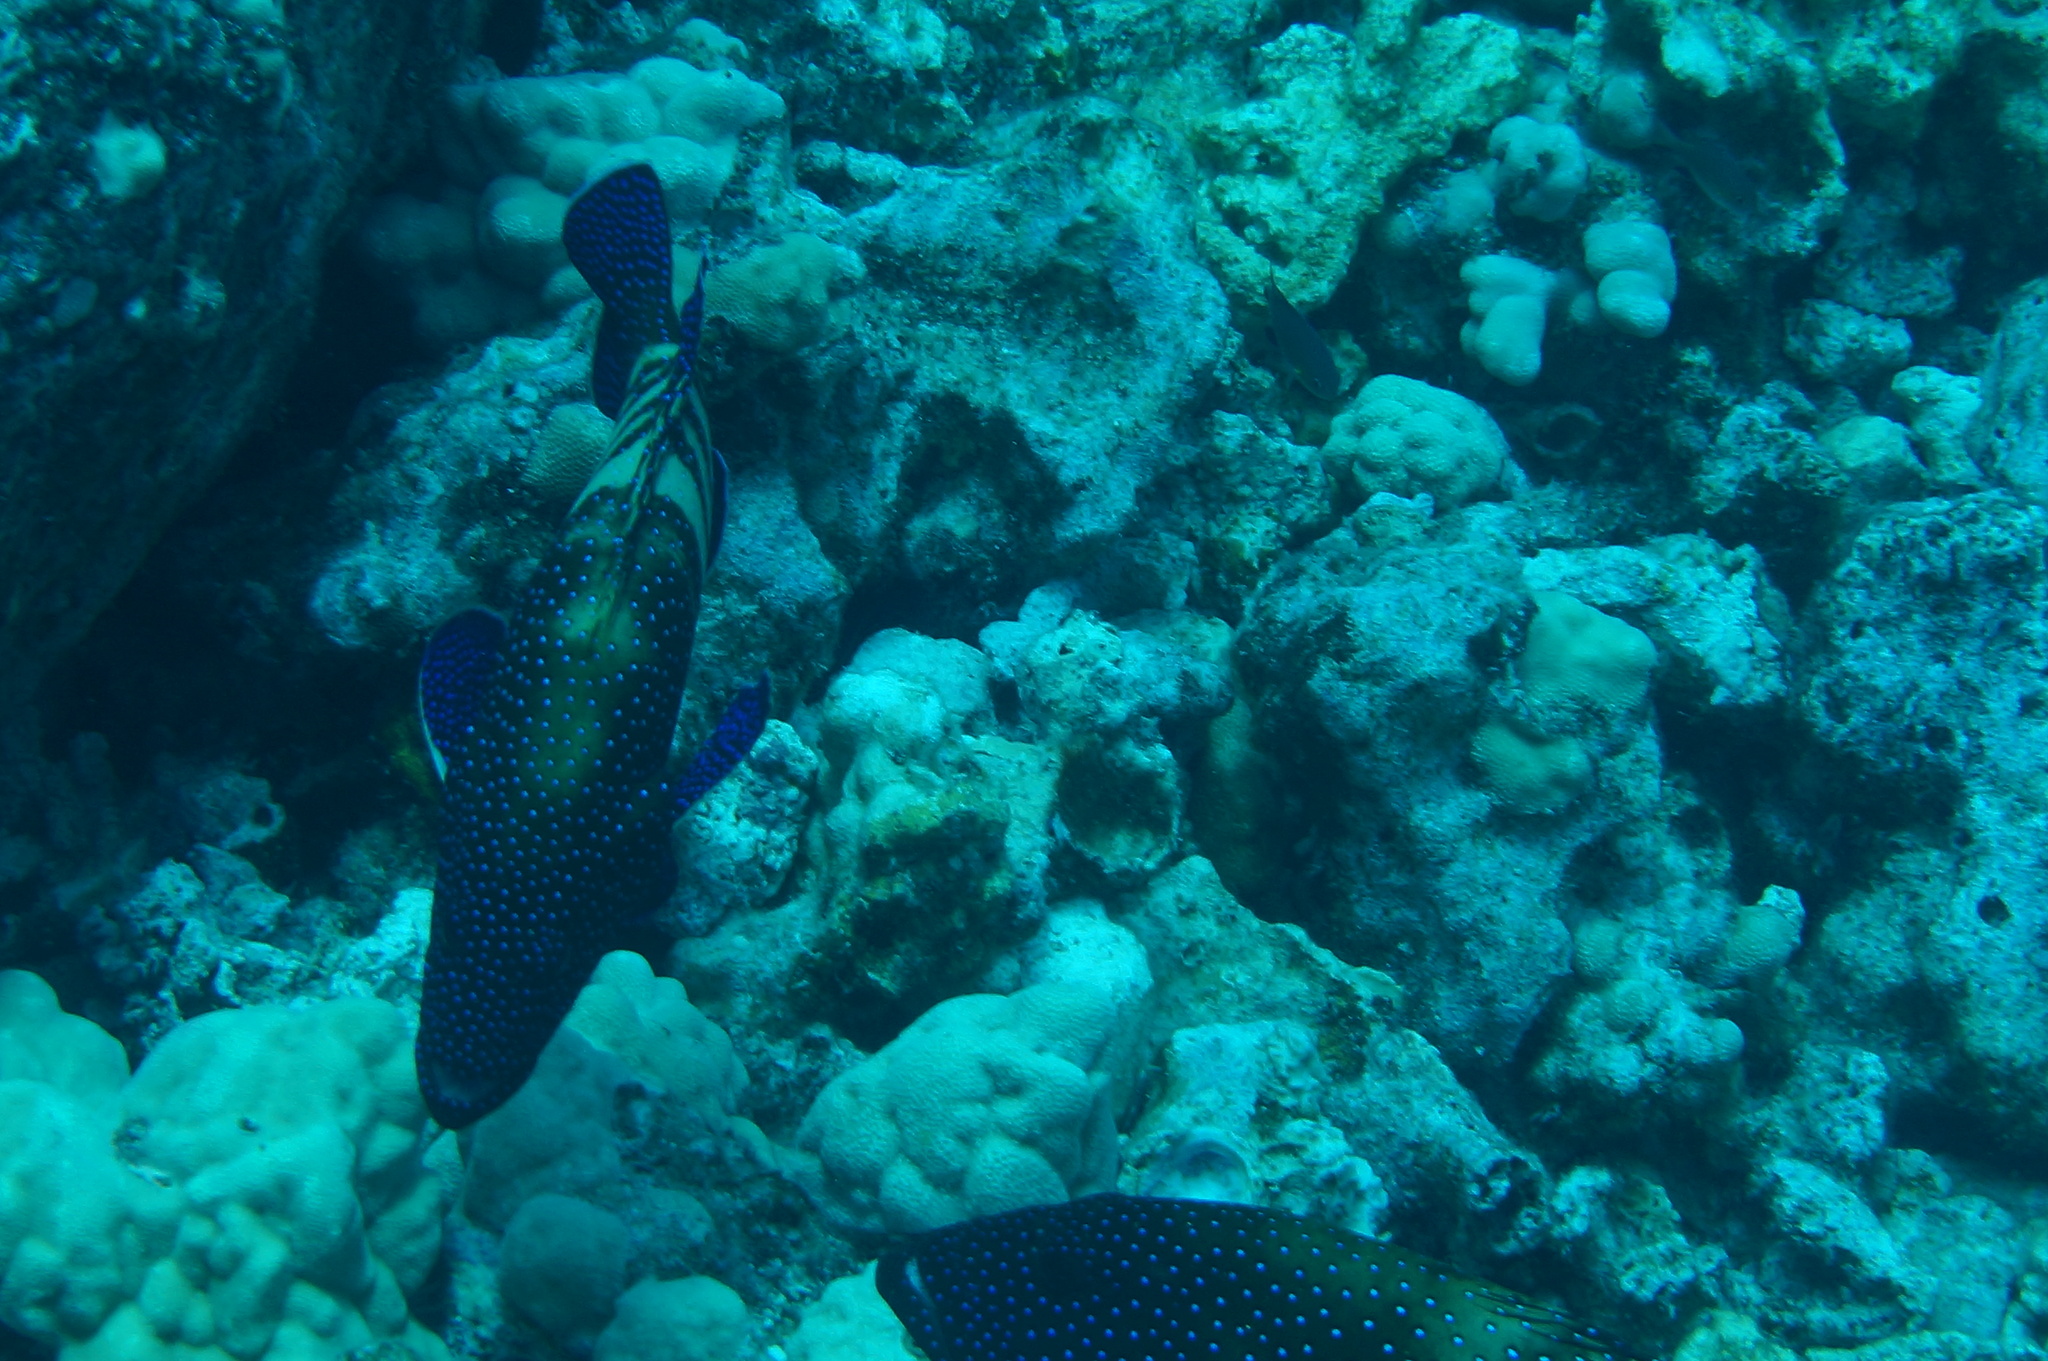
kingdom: Animalia
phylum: Chordata
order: Perciformes
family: Serranidae
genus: Cephalopholis
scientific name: Cephalopholis argus
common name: Peacock grouper
